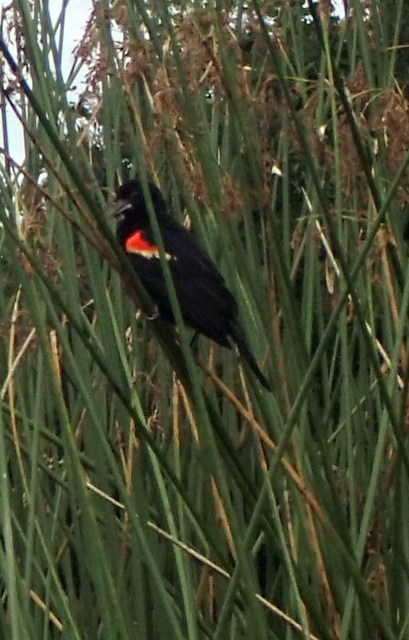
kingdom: Animalia
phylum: Chordata
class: Aves
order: Passeriformes
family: Icteridae
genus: Agelaius
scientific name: Agelaius phoeniceus
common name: Red-winged blackbird
